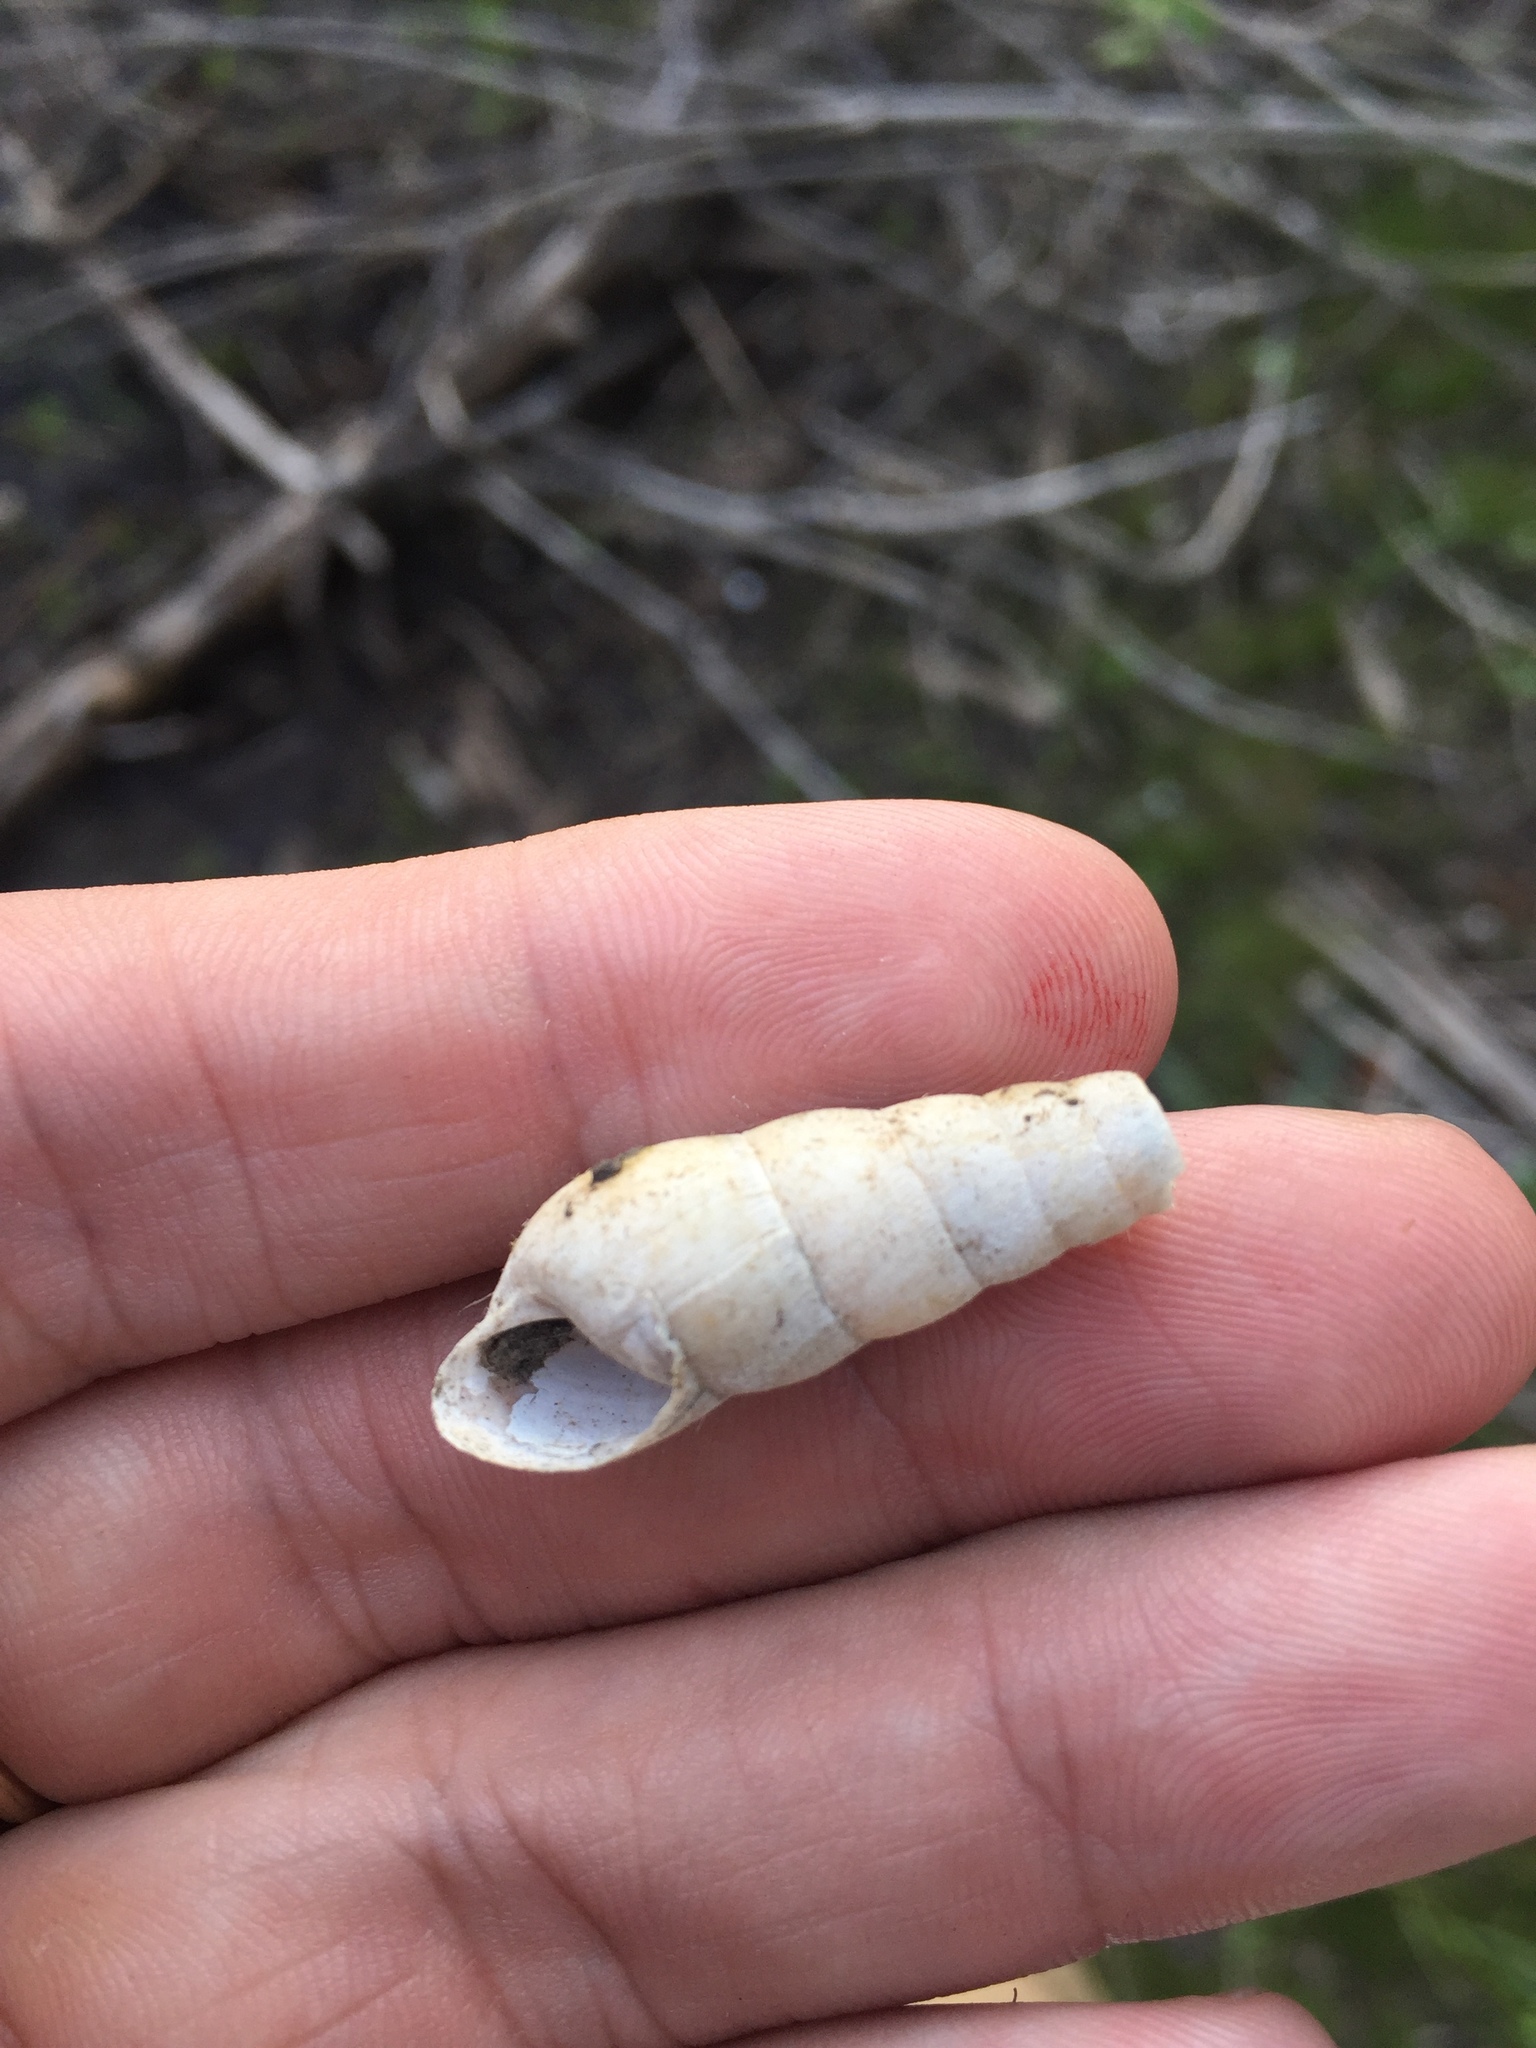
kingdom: Animalia
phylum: Mollusca
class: Gastropoda
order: Stylommatophora
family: Achatinidae
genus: Rumina
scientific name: Rumina decollata
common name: Decollate snail
